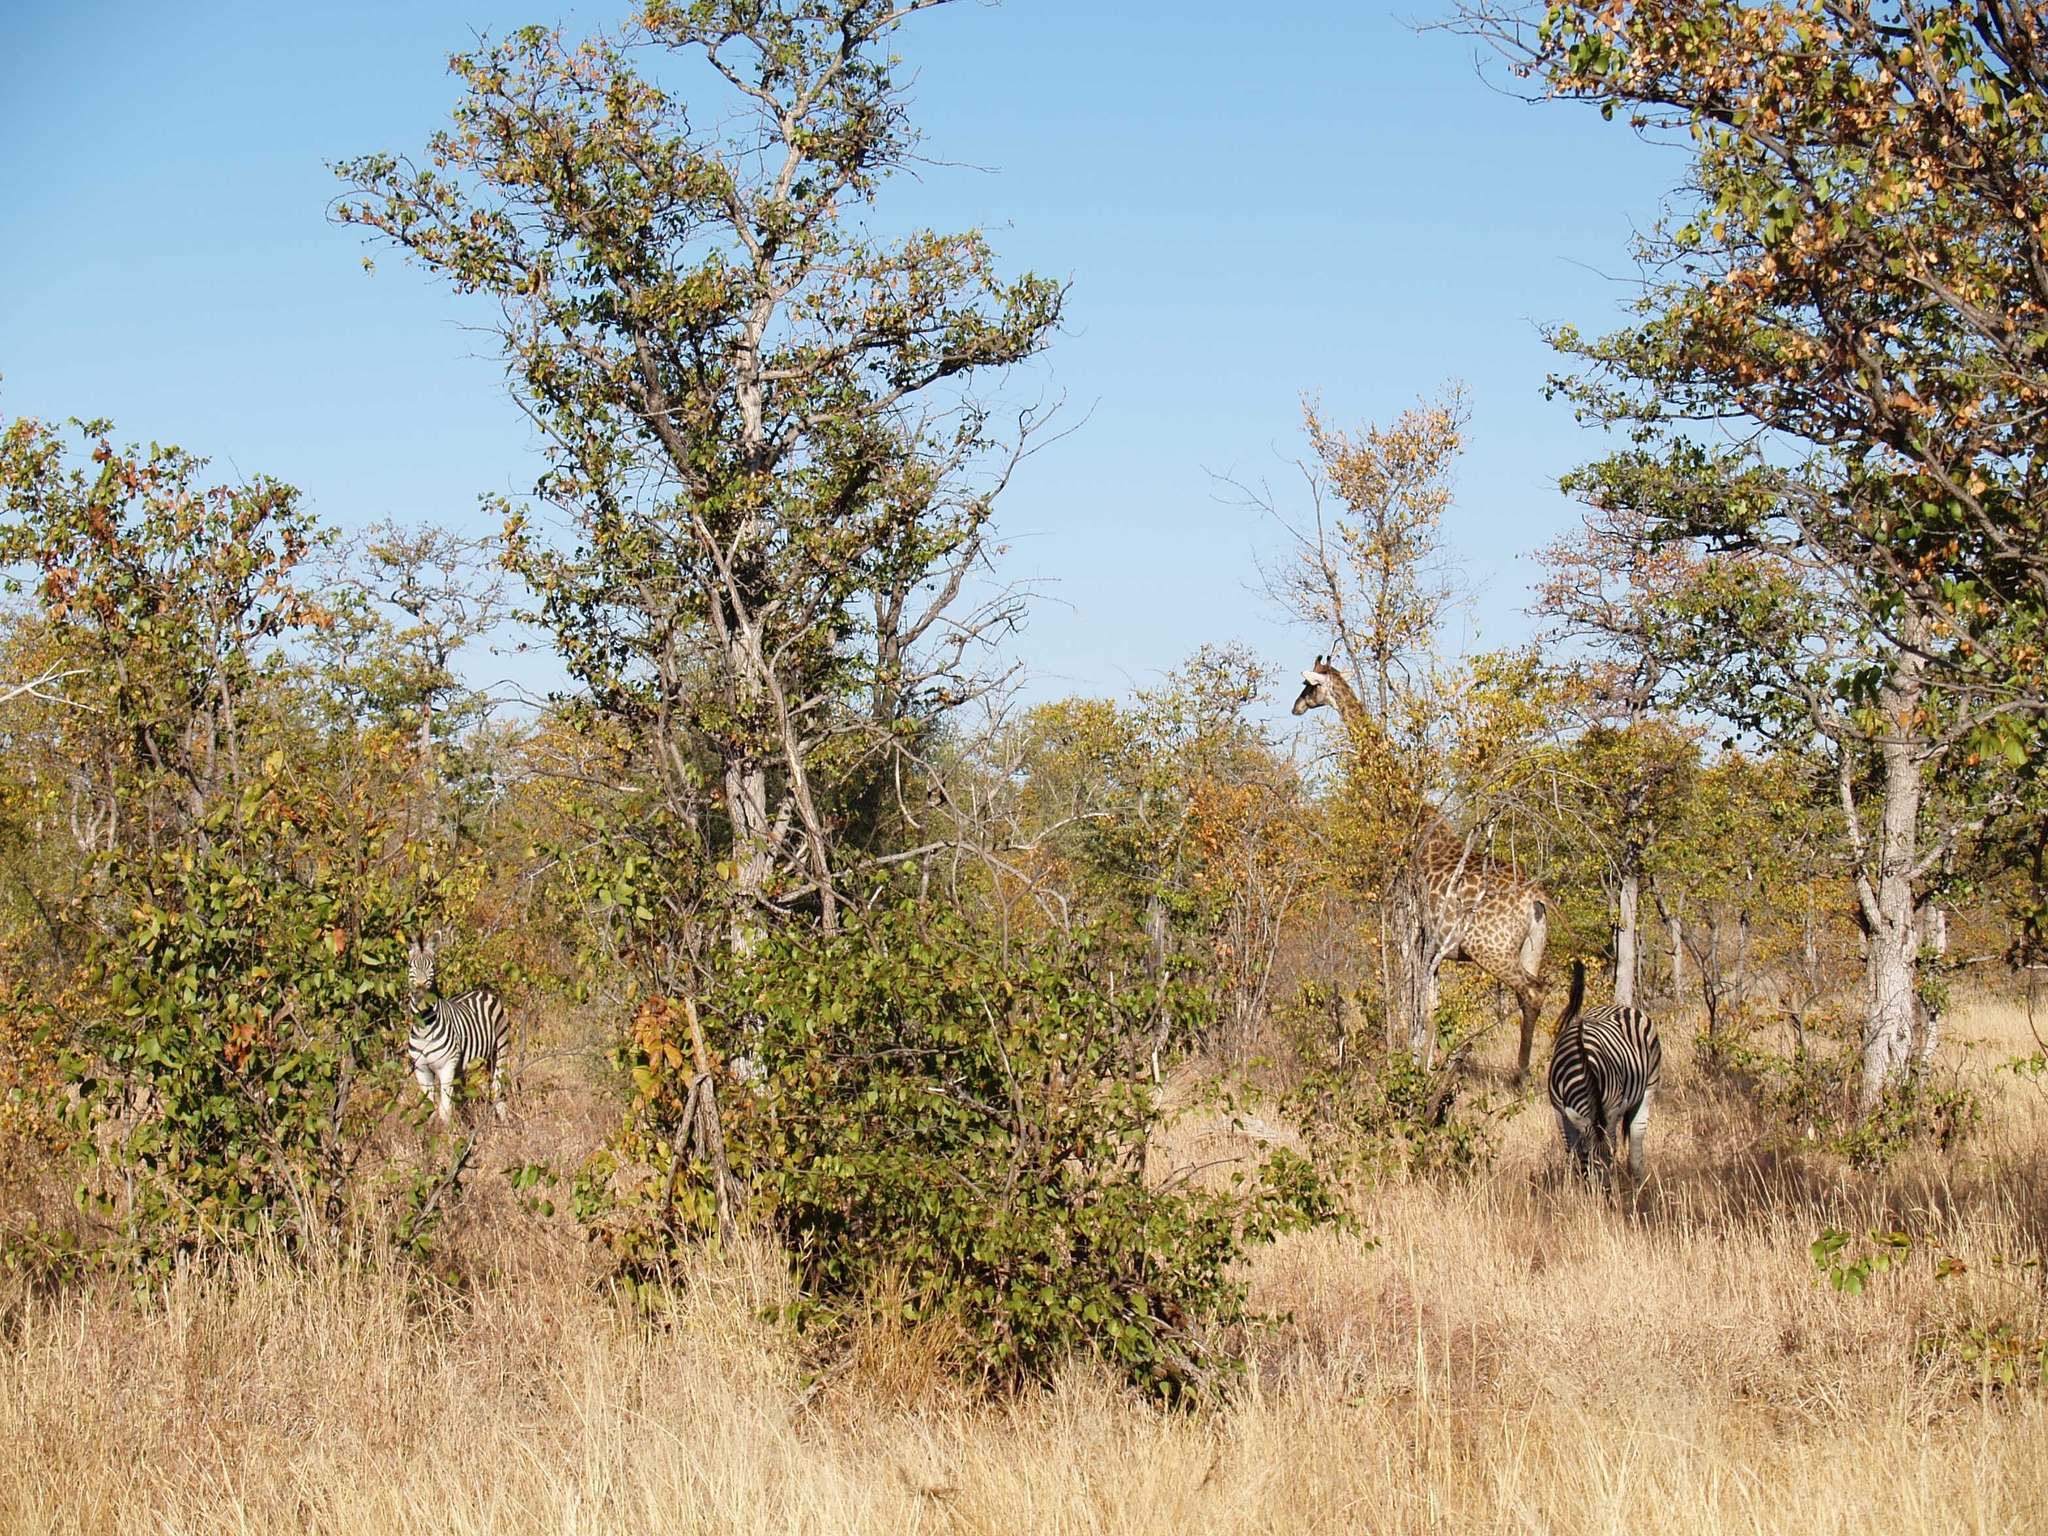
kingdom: Animalia
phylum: Chordata
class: Mammalia
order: Artiodactyla
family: Giraffidae
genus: Giraffa
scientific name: Giraffa giraffa
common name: Southern giraffe
